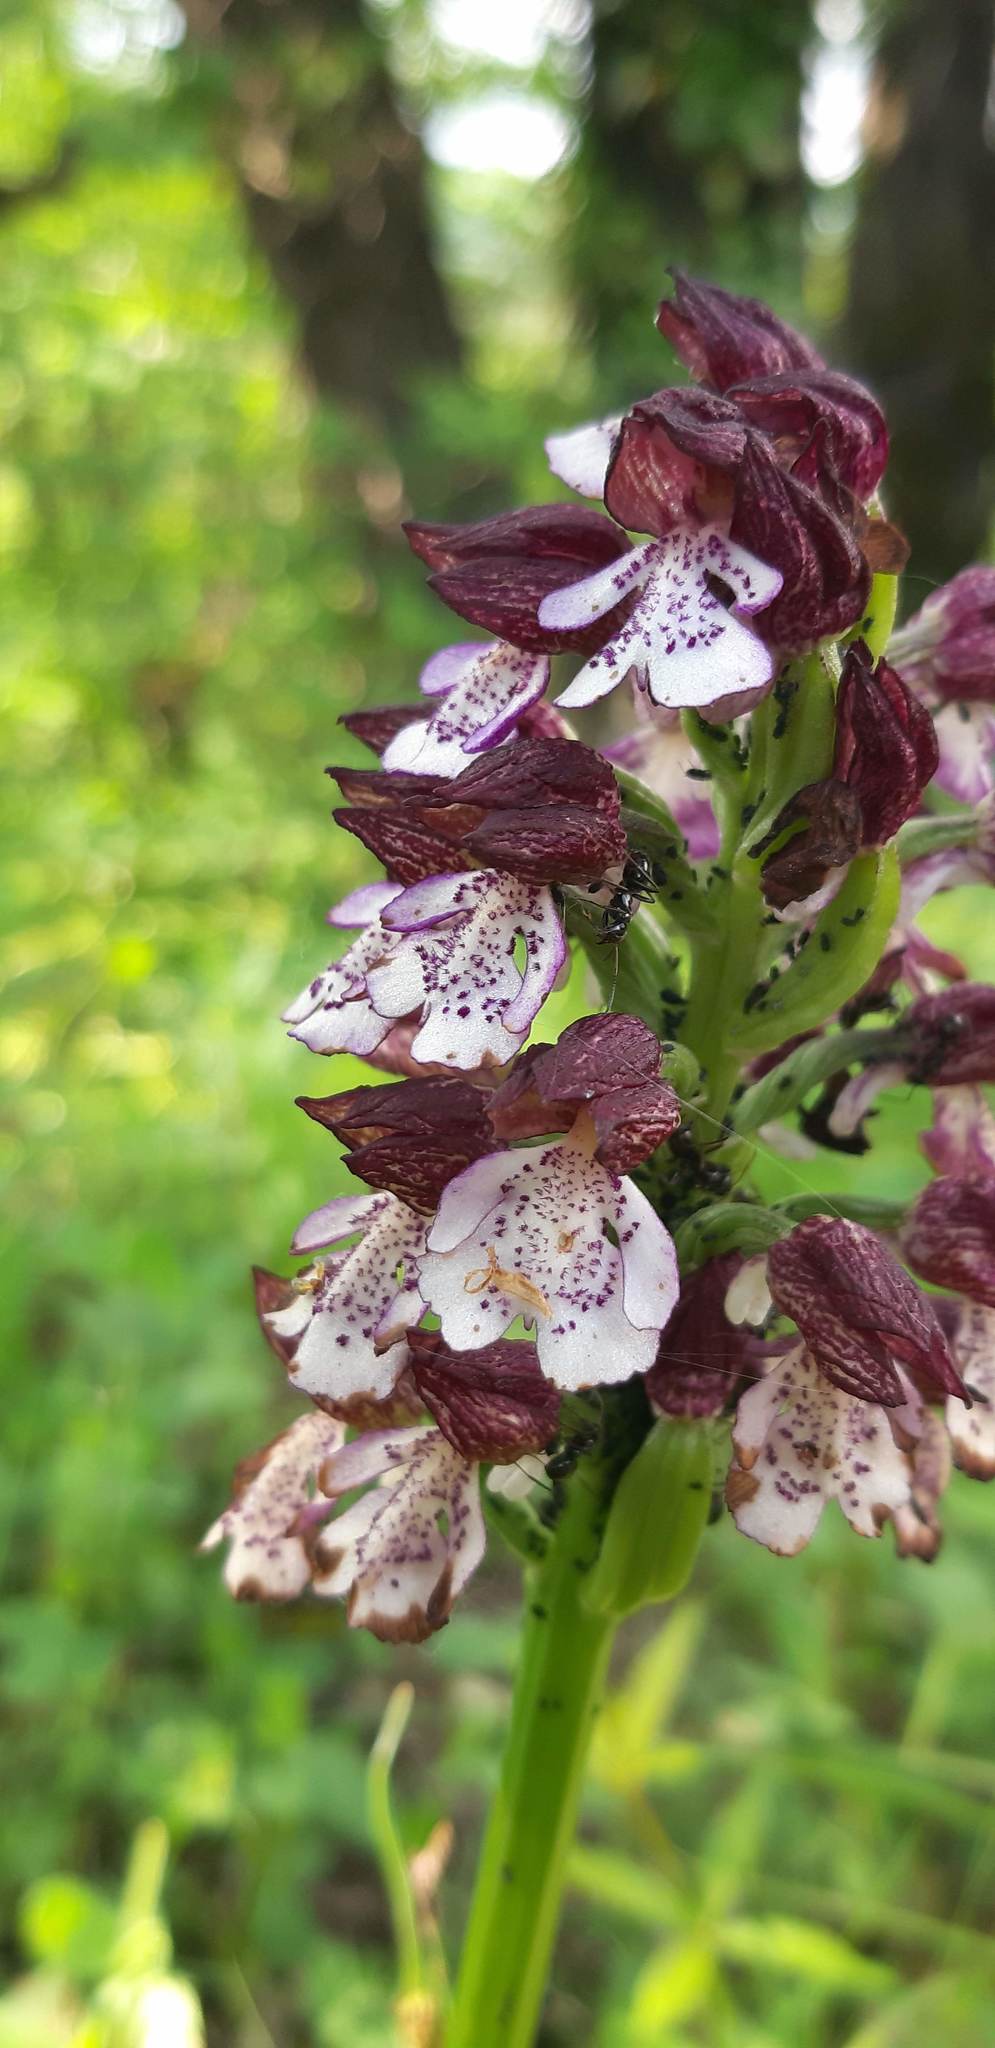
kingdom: Plantae
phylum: Tracheophyta
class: Liliopsida
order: Asparagales
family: Orchidaceae
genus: Orchis
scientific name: Orchis purpurea
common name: Lady orchid
